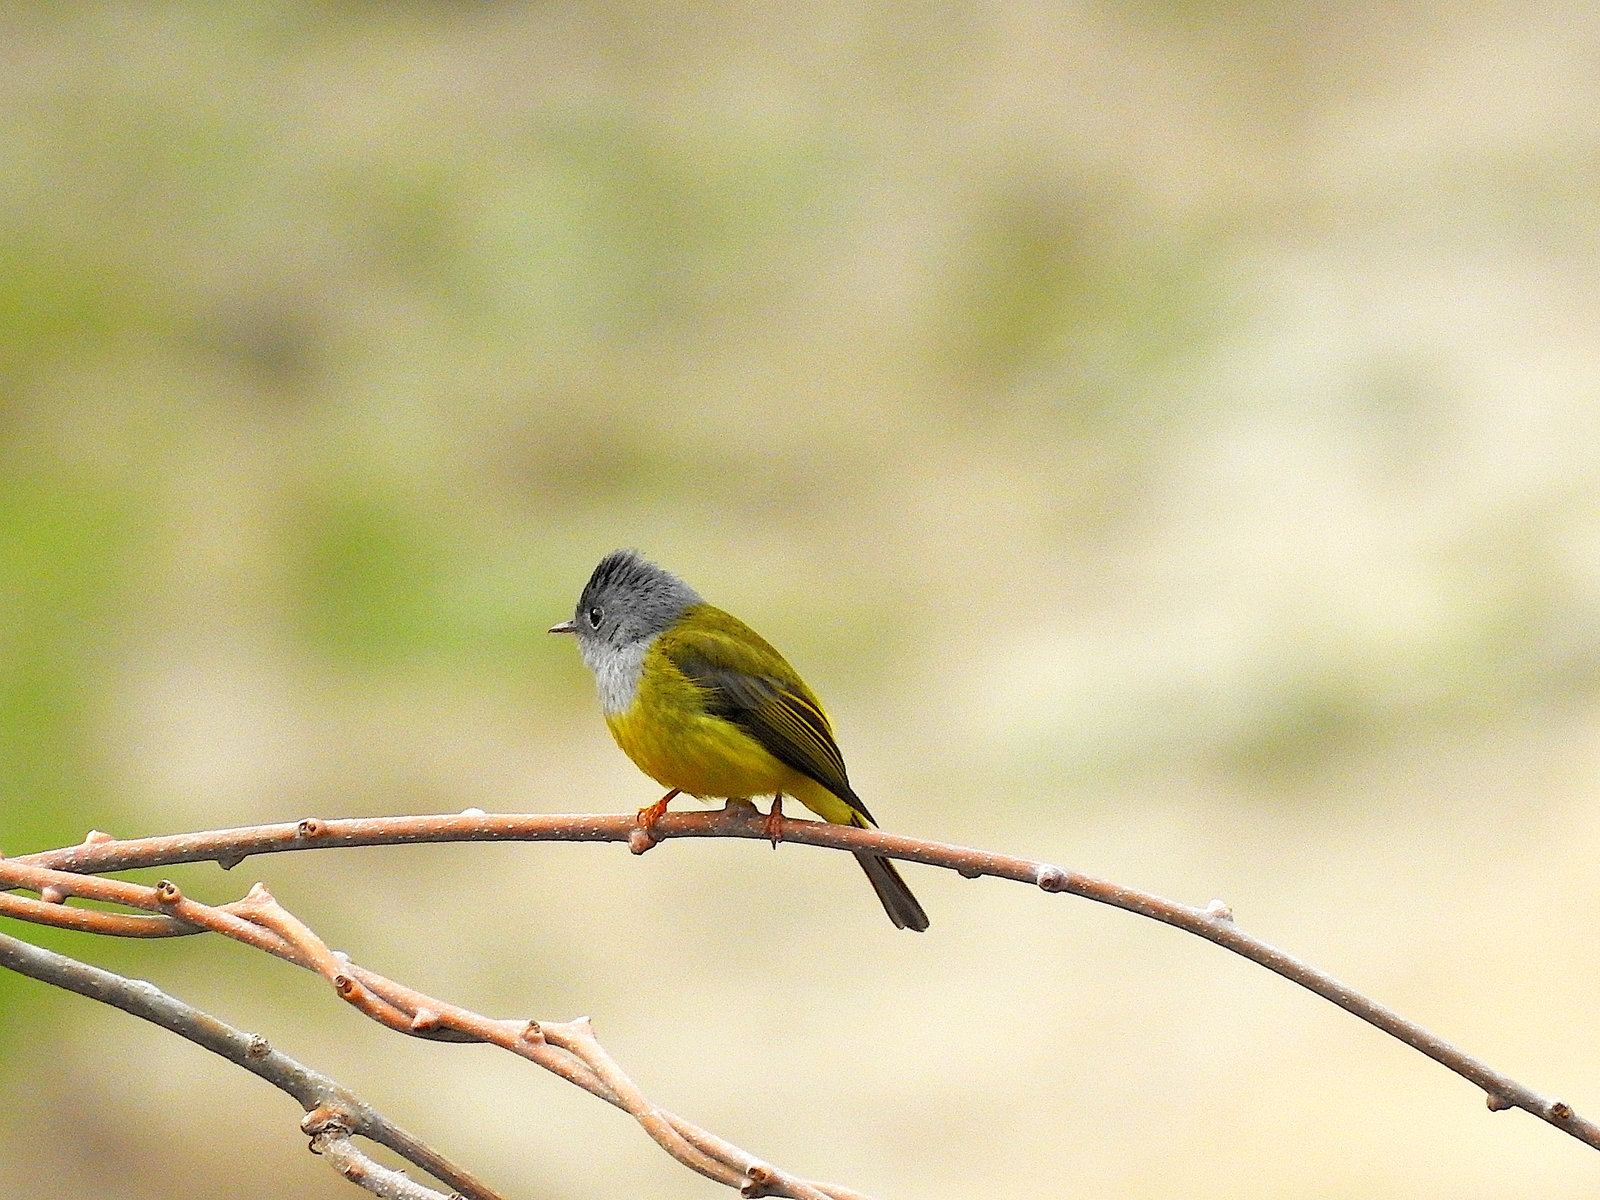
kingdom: Animalia
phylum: Chordata
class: Aves
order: Passeriformes
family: Stenostiridae
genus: Culicicapa
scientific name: Culicicapa ceylonensis
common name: Grey-headed canary-flycatcher
